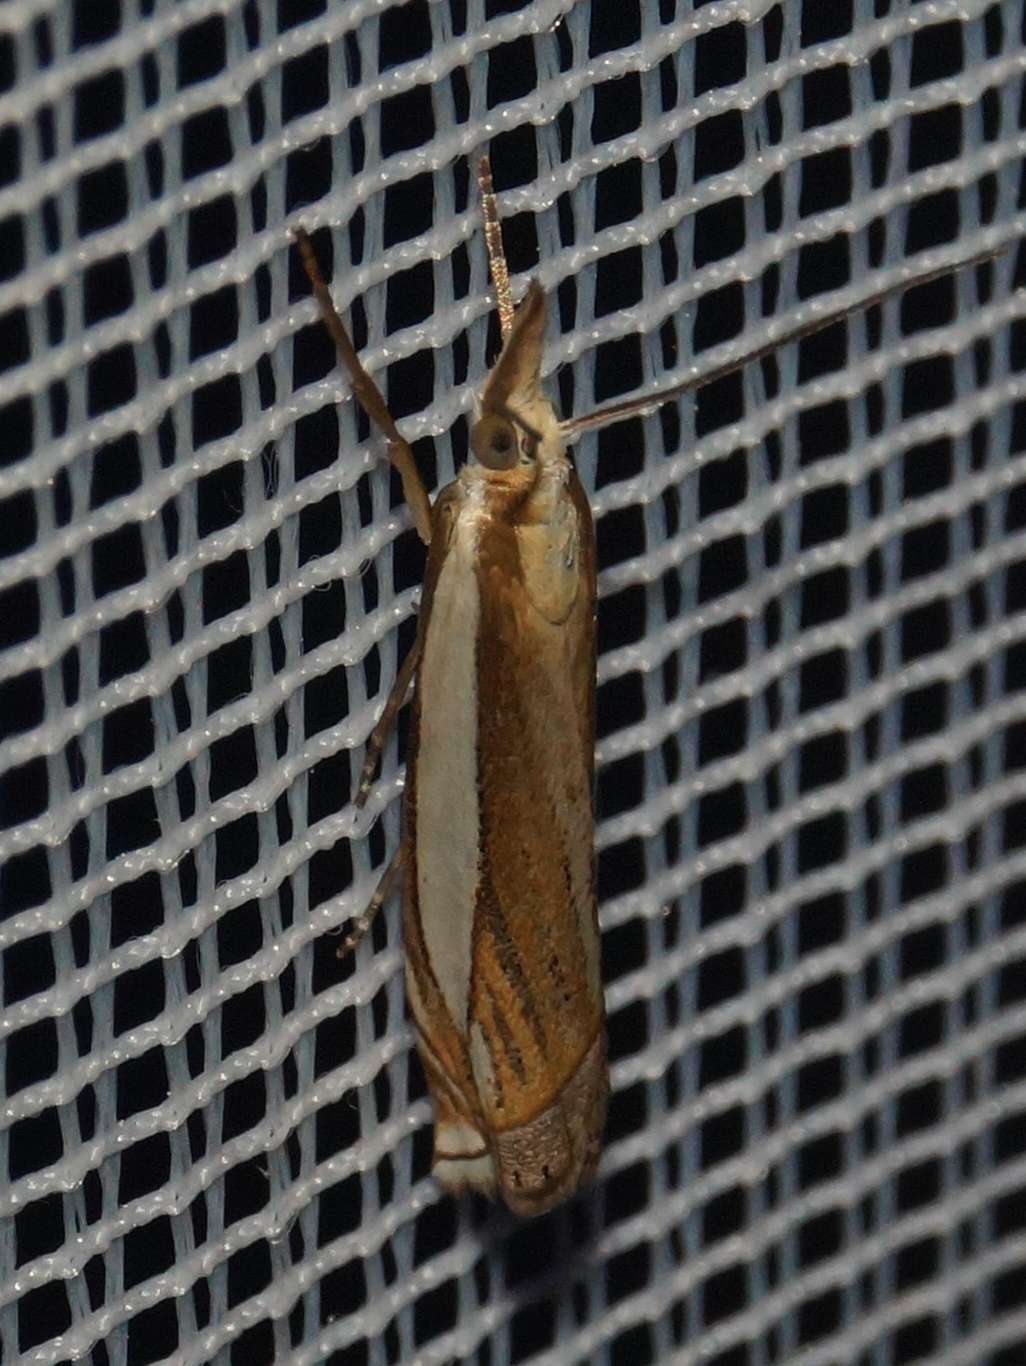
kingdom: Animalia
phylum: Arthropoda
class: Insecta
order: Lepidoptera
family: Crambidae
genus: Crambus
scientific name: Crambus pascuella
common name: Inlaid grass-veneer
